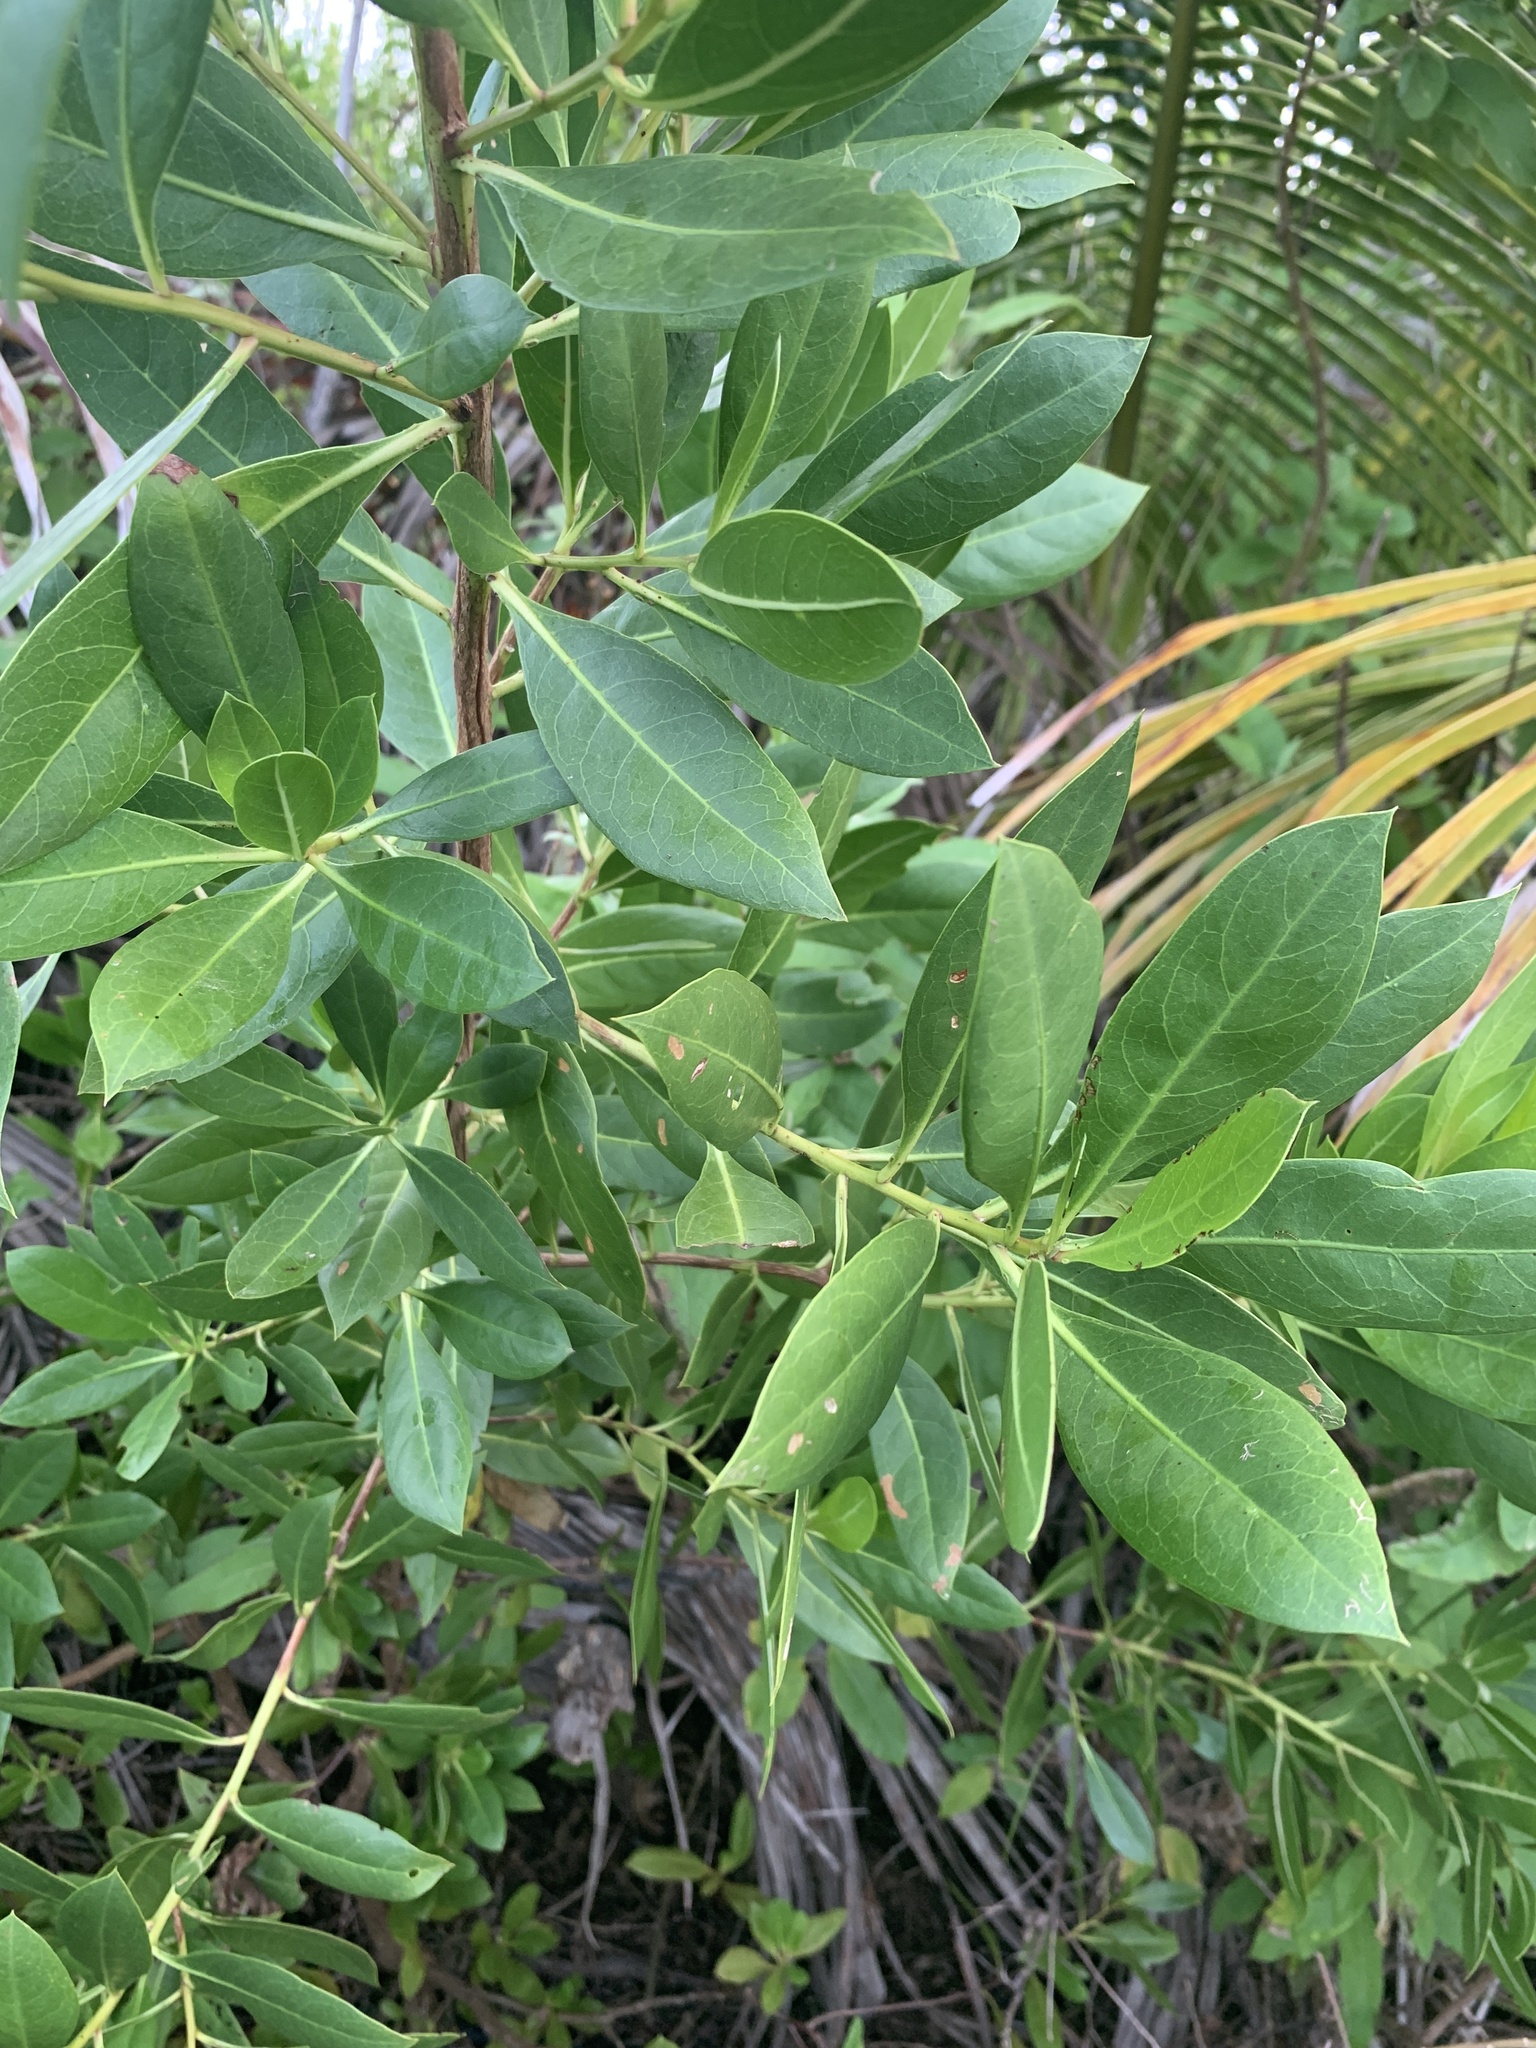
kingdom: Plantae
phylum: Tracheophyta
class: Magnoliopsida
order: Myrtales
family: Combretaceae
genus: Conocarpus
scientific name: Conocarpus erectus
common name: Button mangrove
